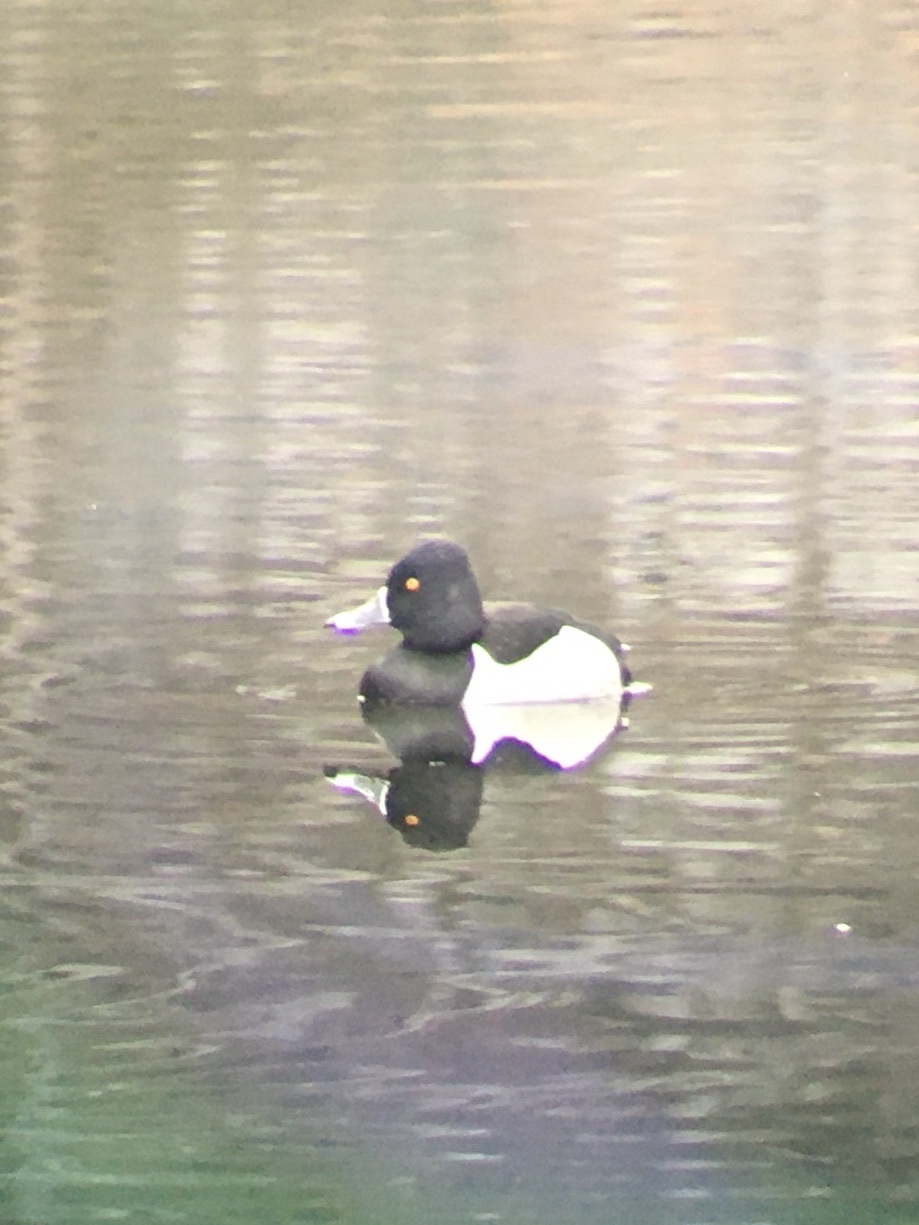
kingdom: Animalia
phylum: Chordata
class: Aves
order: Anseriformes
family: Anatidae
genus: Aythya
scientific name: Aythya collaris
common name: Ring-necked duck
